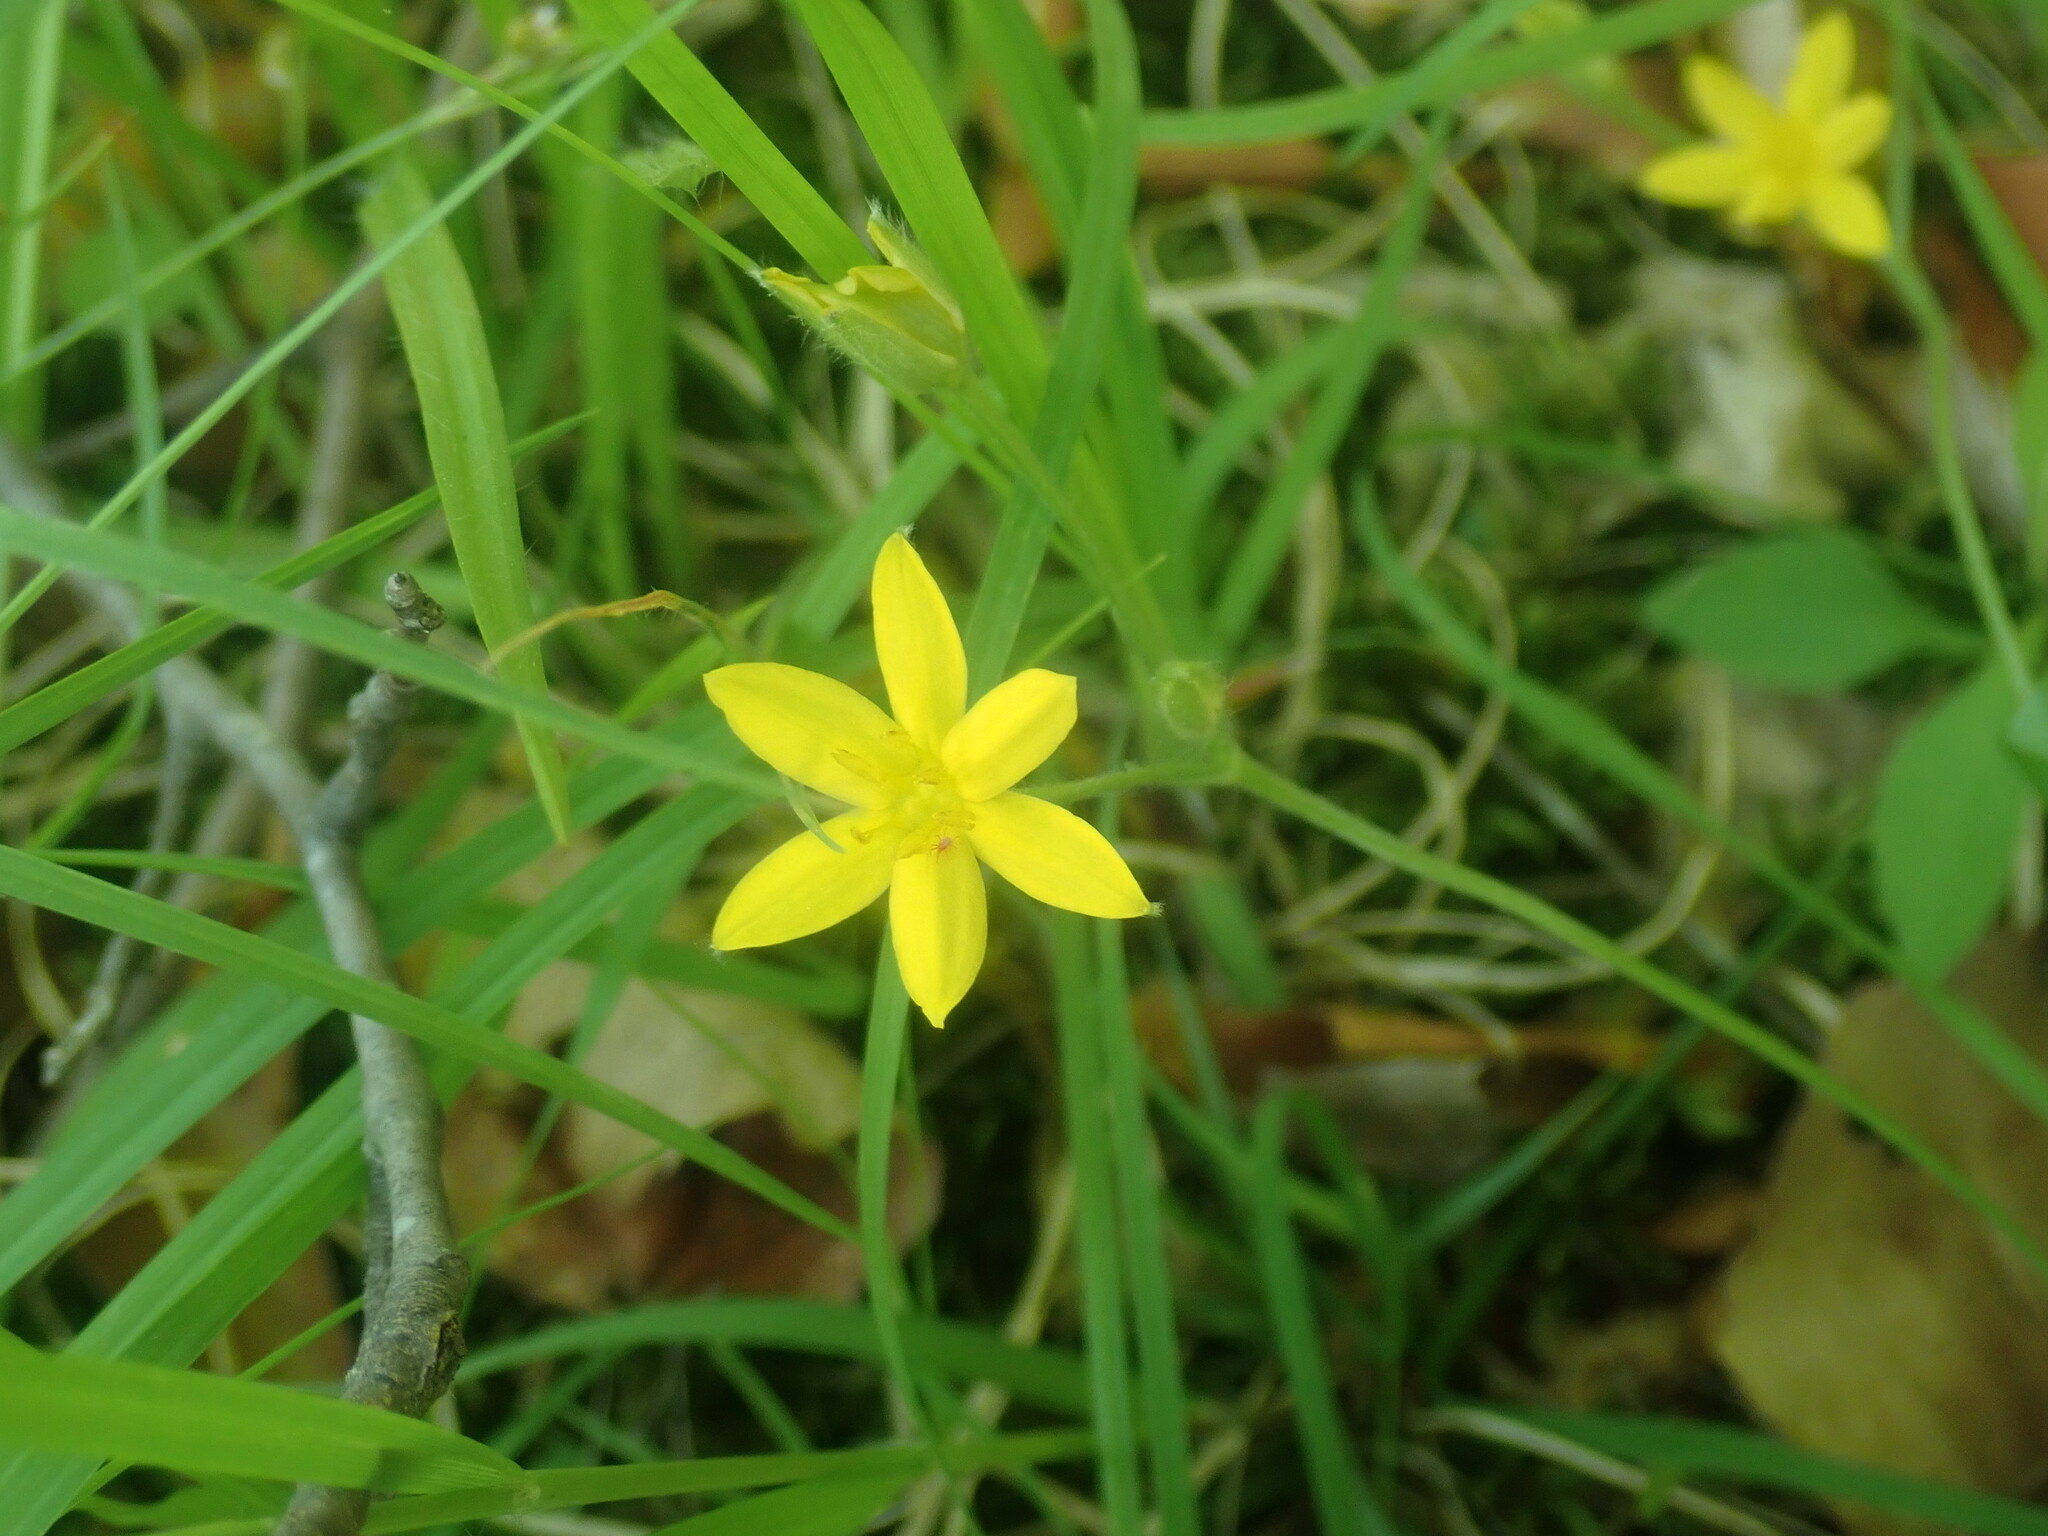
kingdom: Plantae
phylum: Tracheophyta
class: Liliopsida
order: Asparagales
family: Hypoxidaceae
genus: Hypoxis
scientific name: Hypoxis hirsuta
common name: Common goldstar
